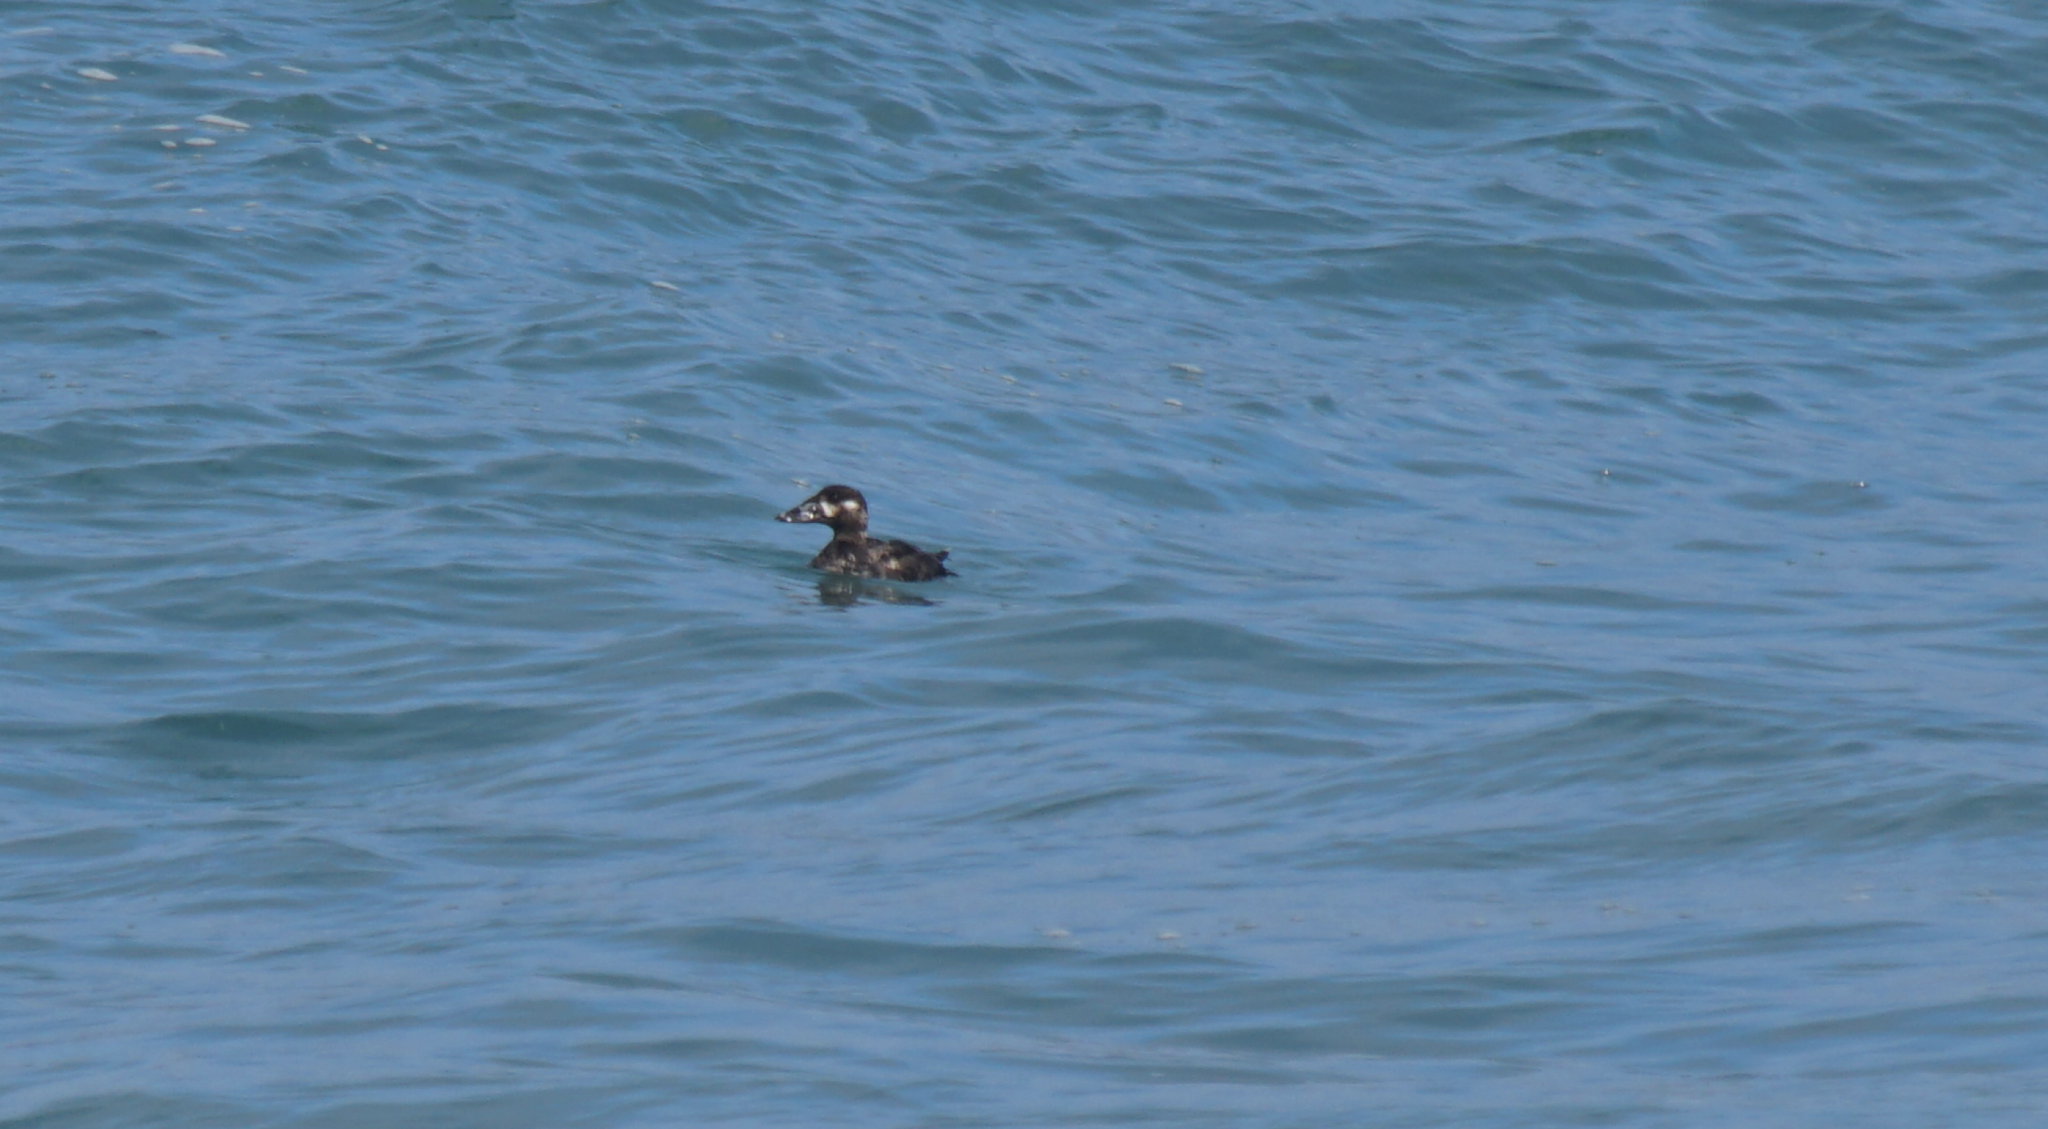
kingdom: Animalia
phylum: Chordata
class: Aves
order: Anseriformes
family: Anatidae
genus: Melanitta
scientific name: Melanitta perspicillata
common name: Surf scoter
